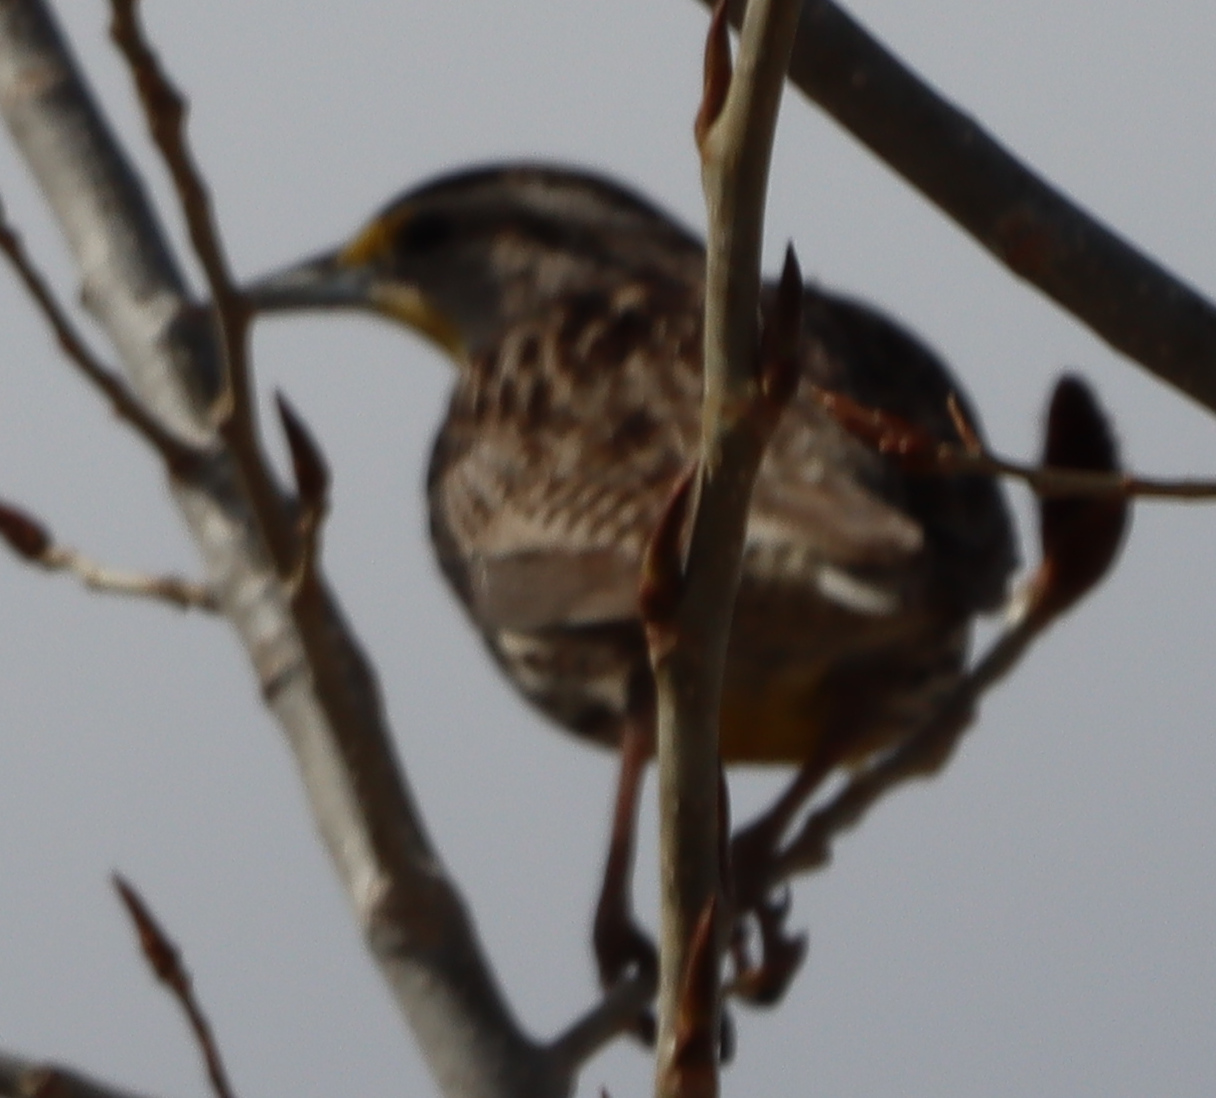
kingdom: Animalia
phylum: Chordata
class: Aves
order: Passeriformes
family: Icteridae
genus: Sturnella
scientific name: Sturnella neglecta
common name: Western meadowlark
